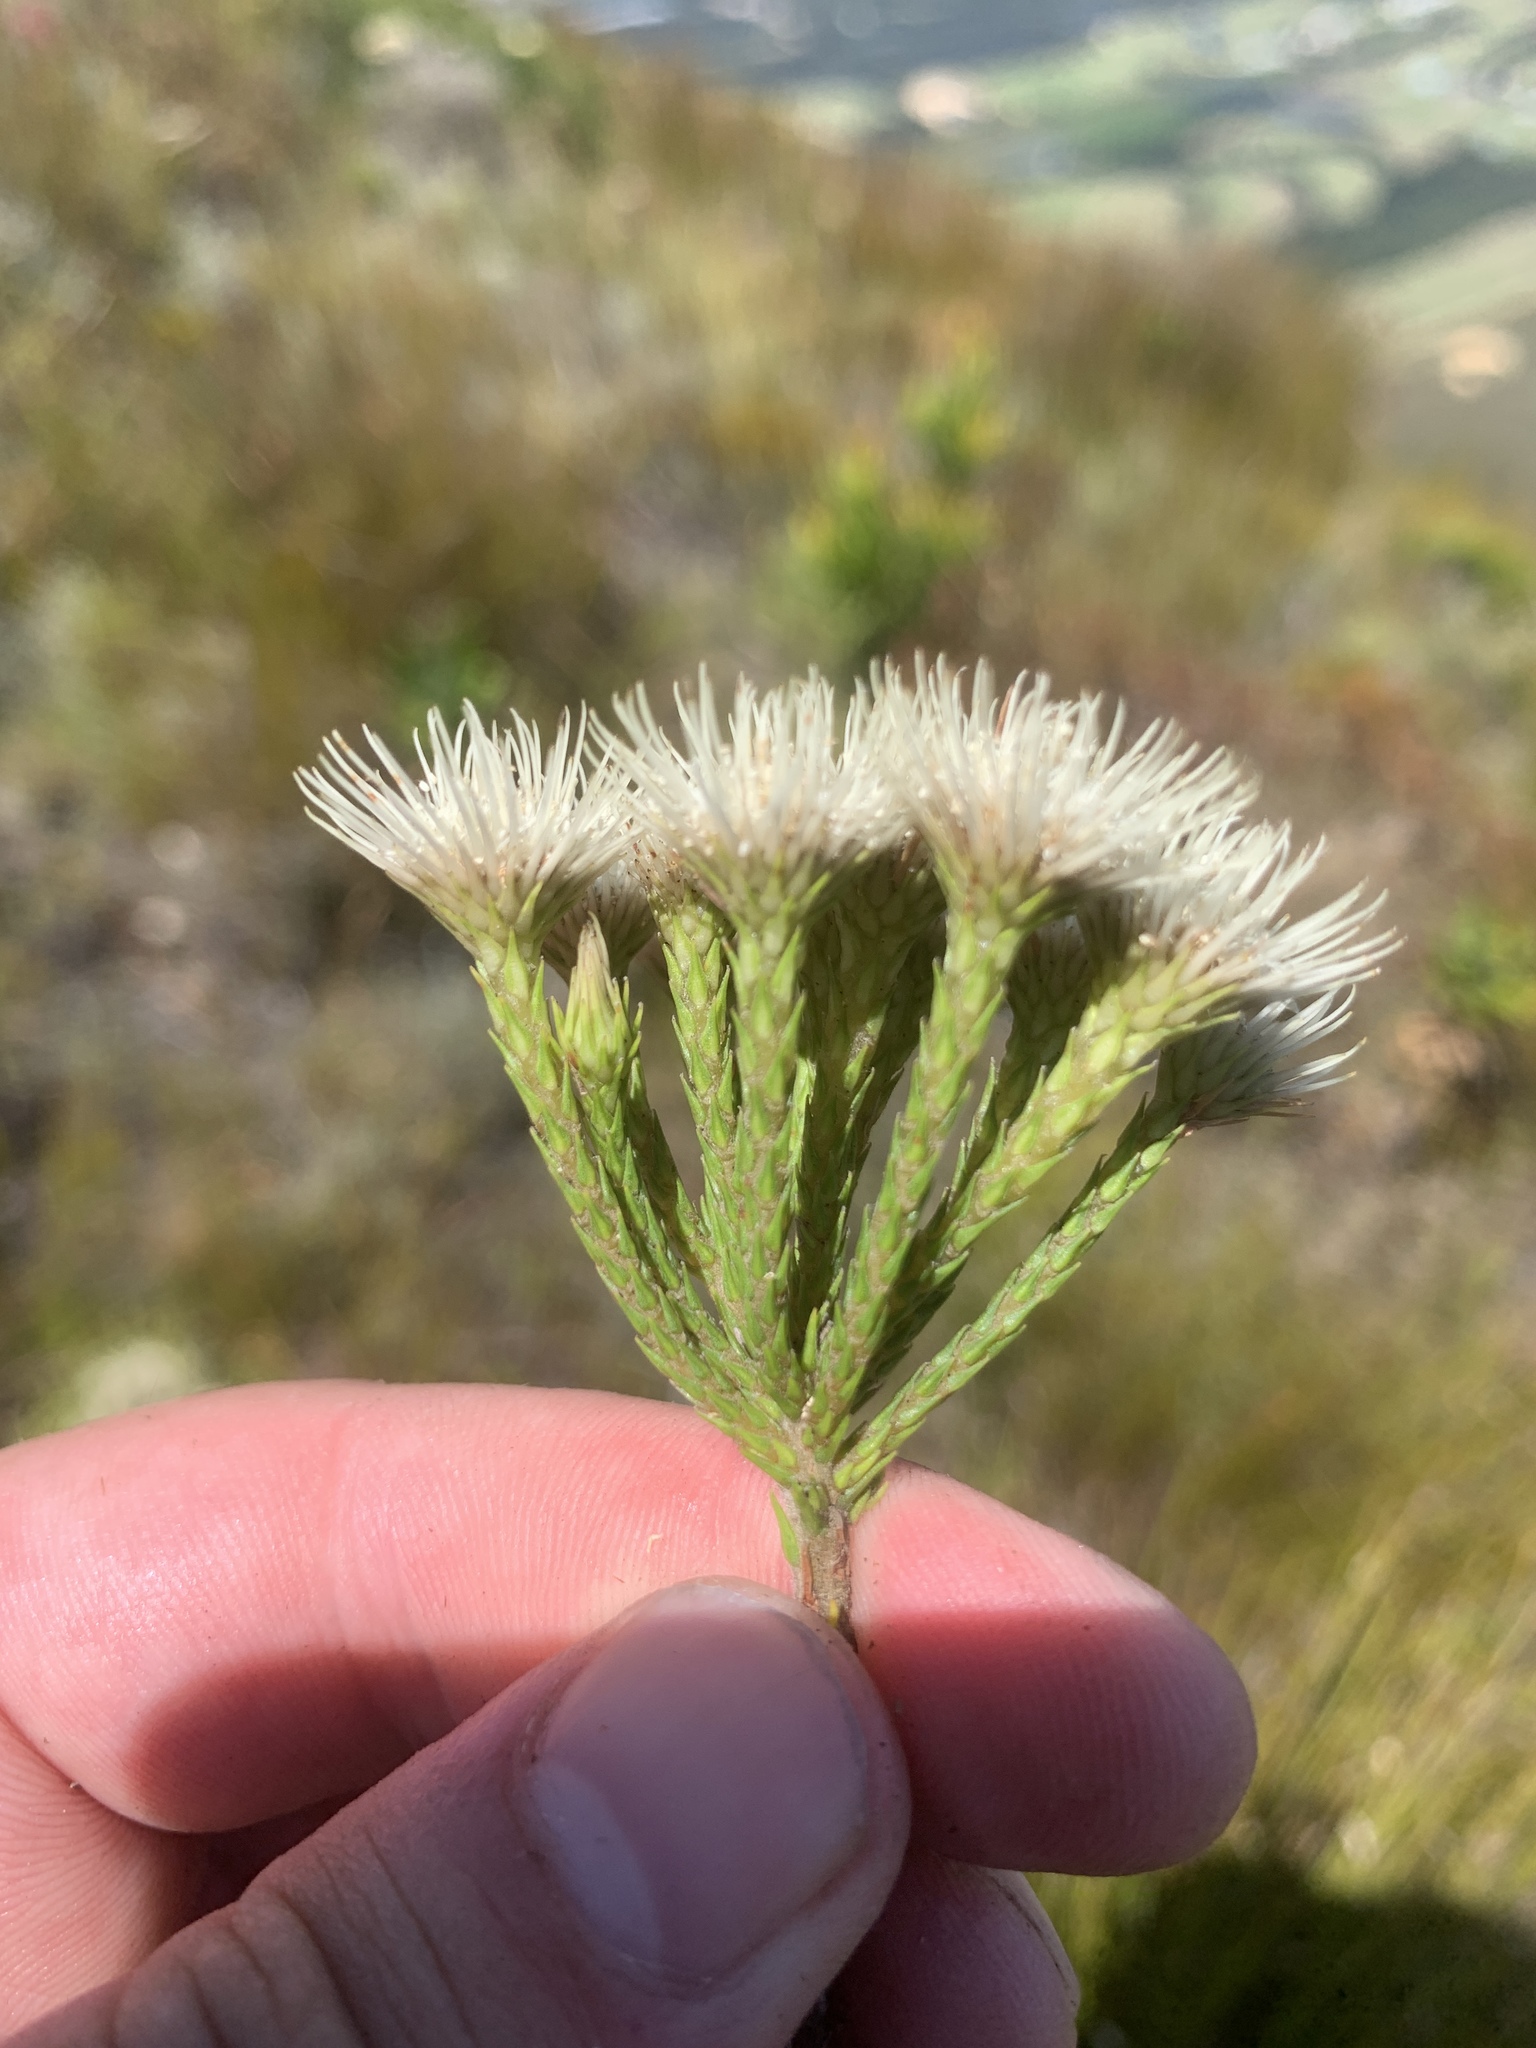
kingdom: Plantae
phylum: Tracheophyta
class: Magnoliopsida
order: Bruniales
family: Bruniaceae
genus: Brunia
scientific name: Brunia paleacea
